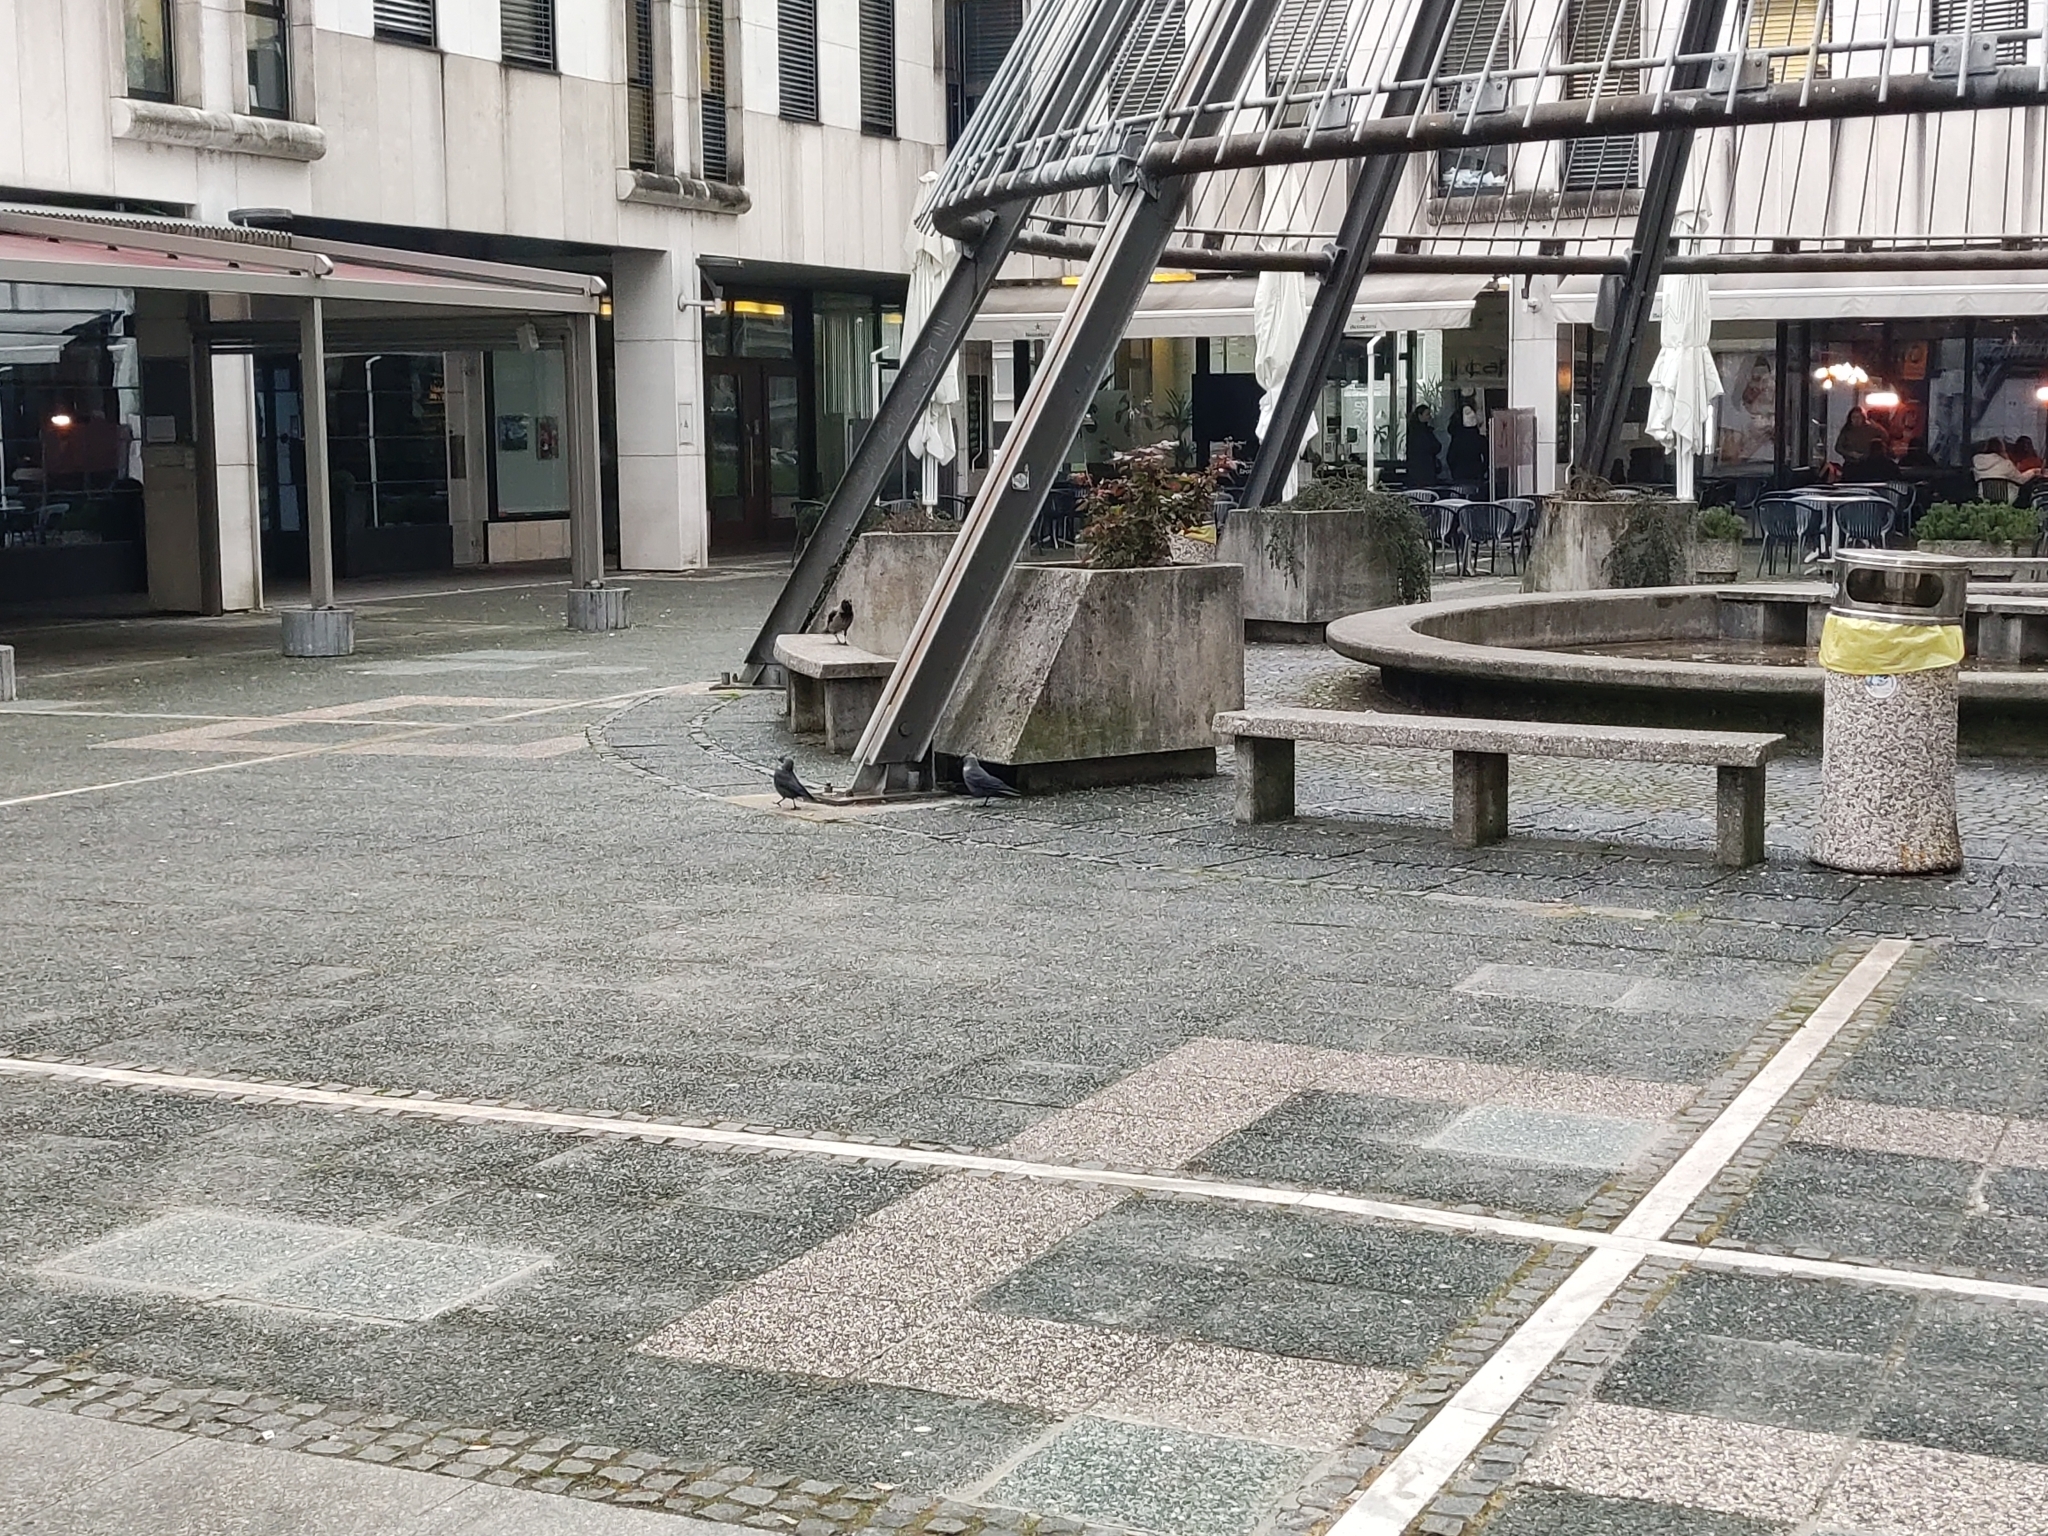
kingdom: Animalia
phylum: Chordata
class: Aves
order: Passeriformes
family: Corvidae
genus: Coloeus
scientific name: Coloeus monedula
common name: Western jackdaw
